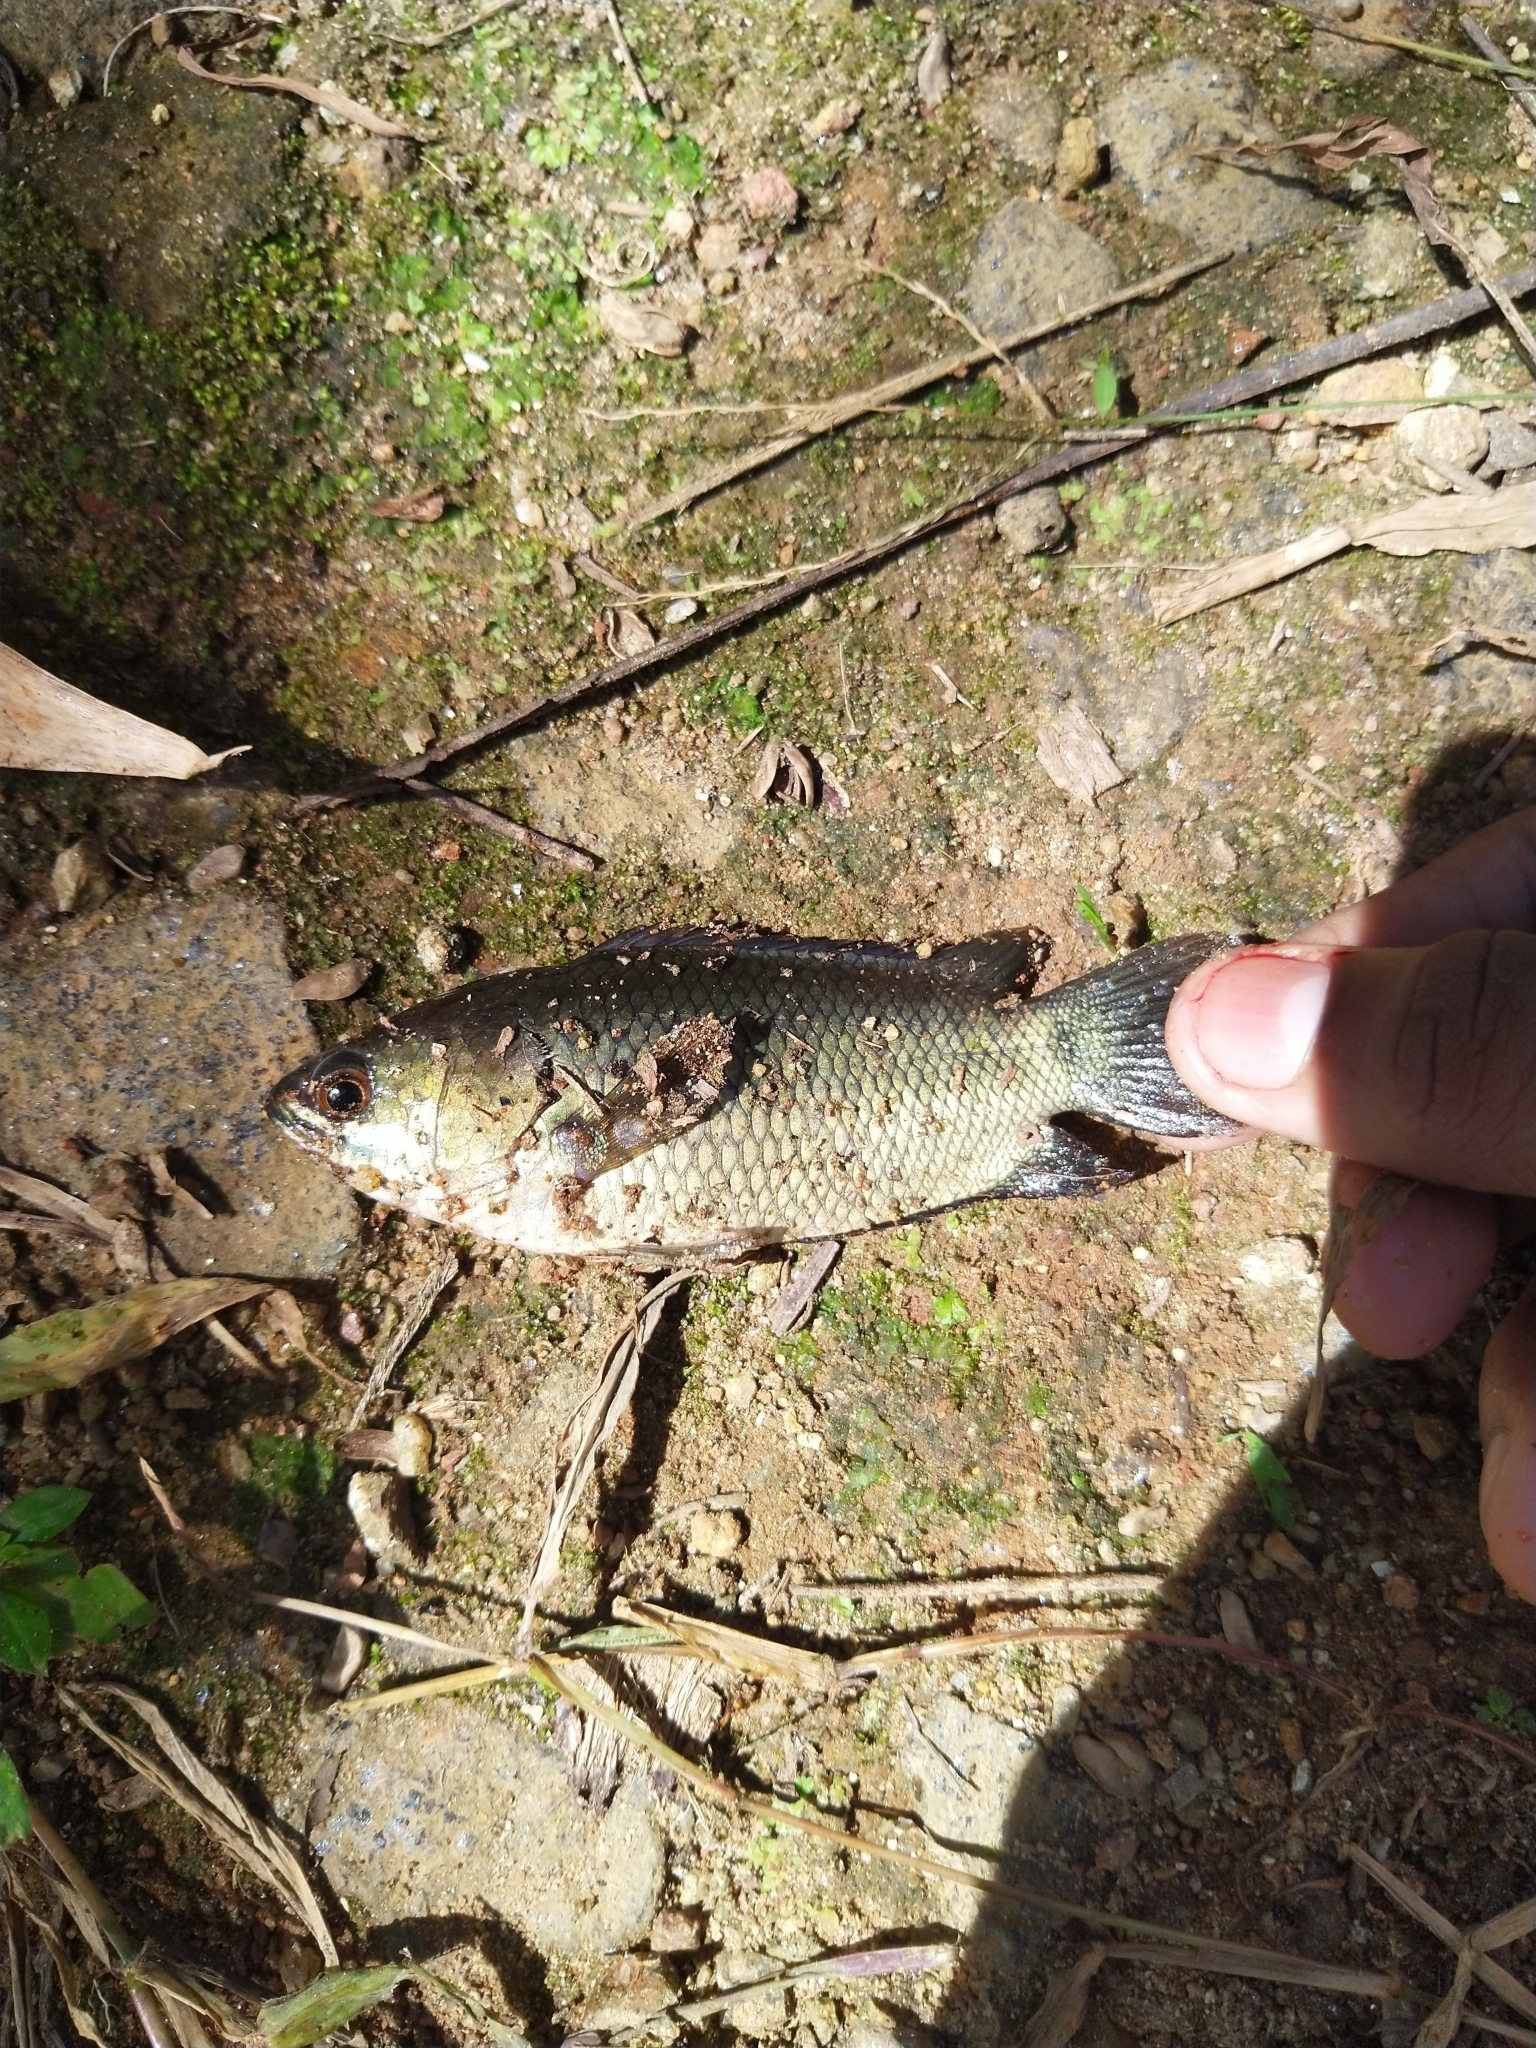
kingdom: Animalia
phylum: Chordata
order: Perciformes
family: Anabantidae
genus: Anabas
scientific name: Anabas testudineus
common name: Climbing perch
